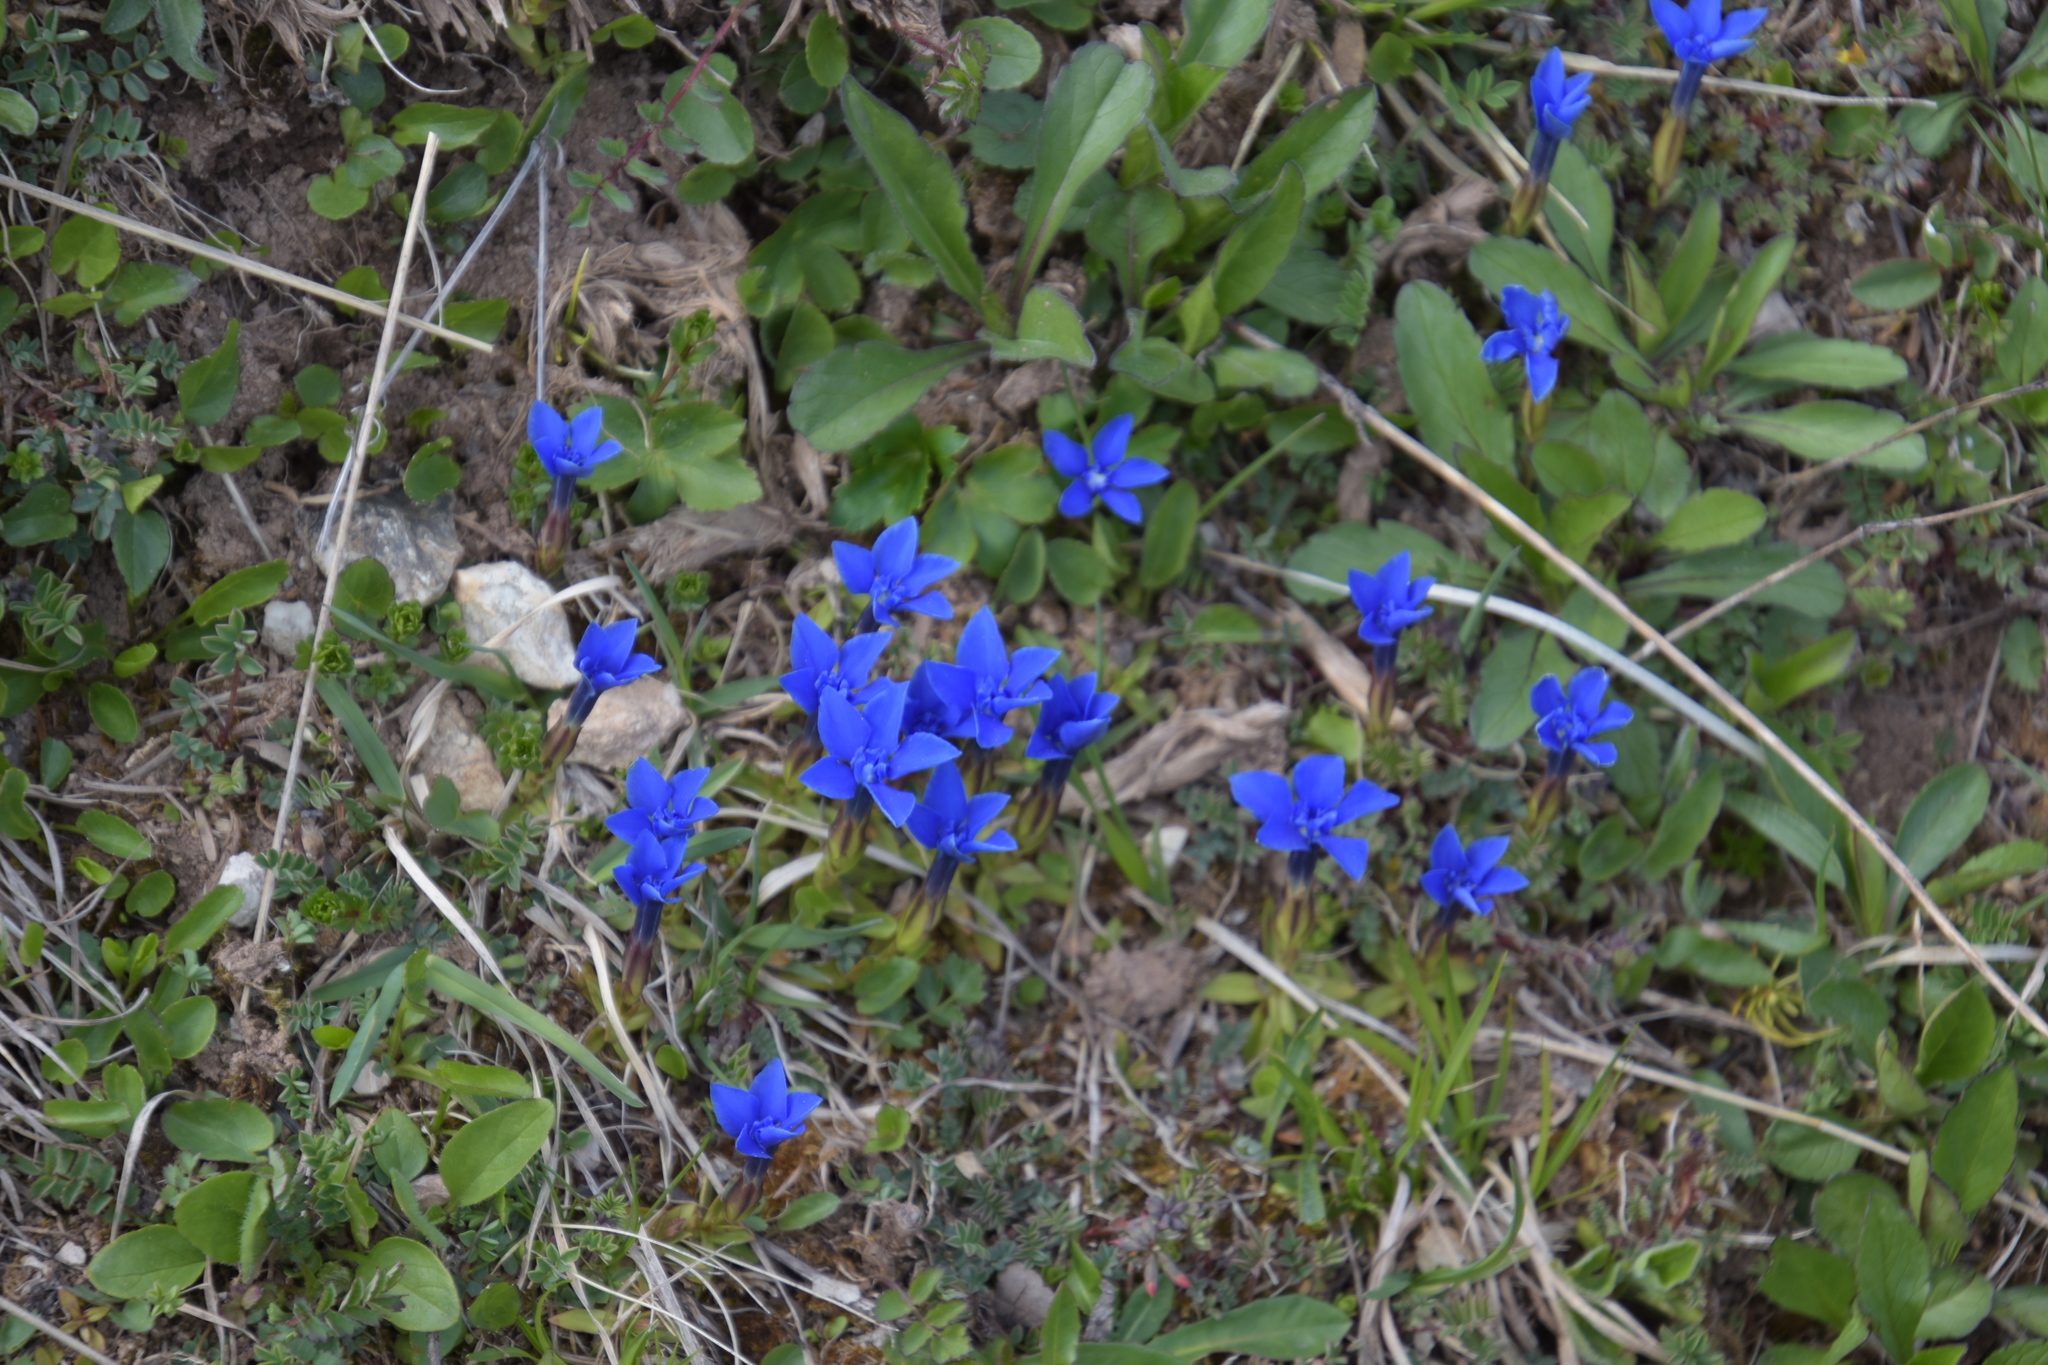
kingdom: Plantae
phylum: Tracheophyta
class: Magnoliopsida
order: Gentianales
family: Gentianaceae
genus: Gentiana
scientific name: Gentiana verna
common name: Spring gentian
